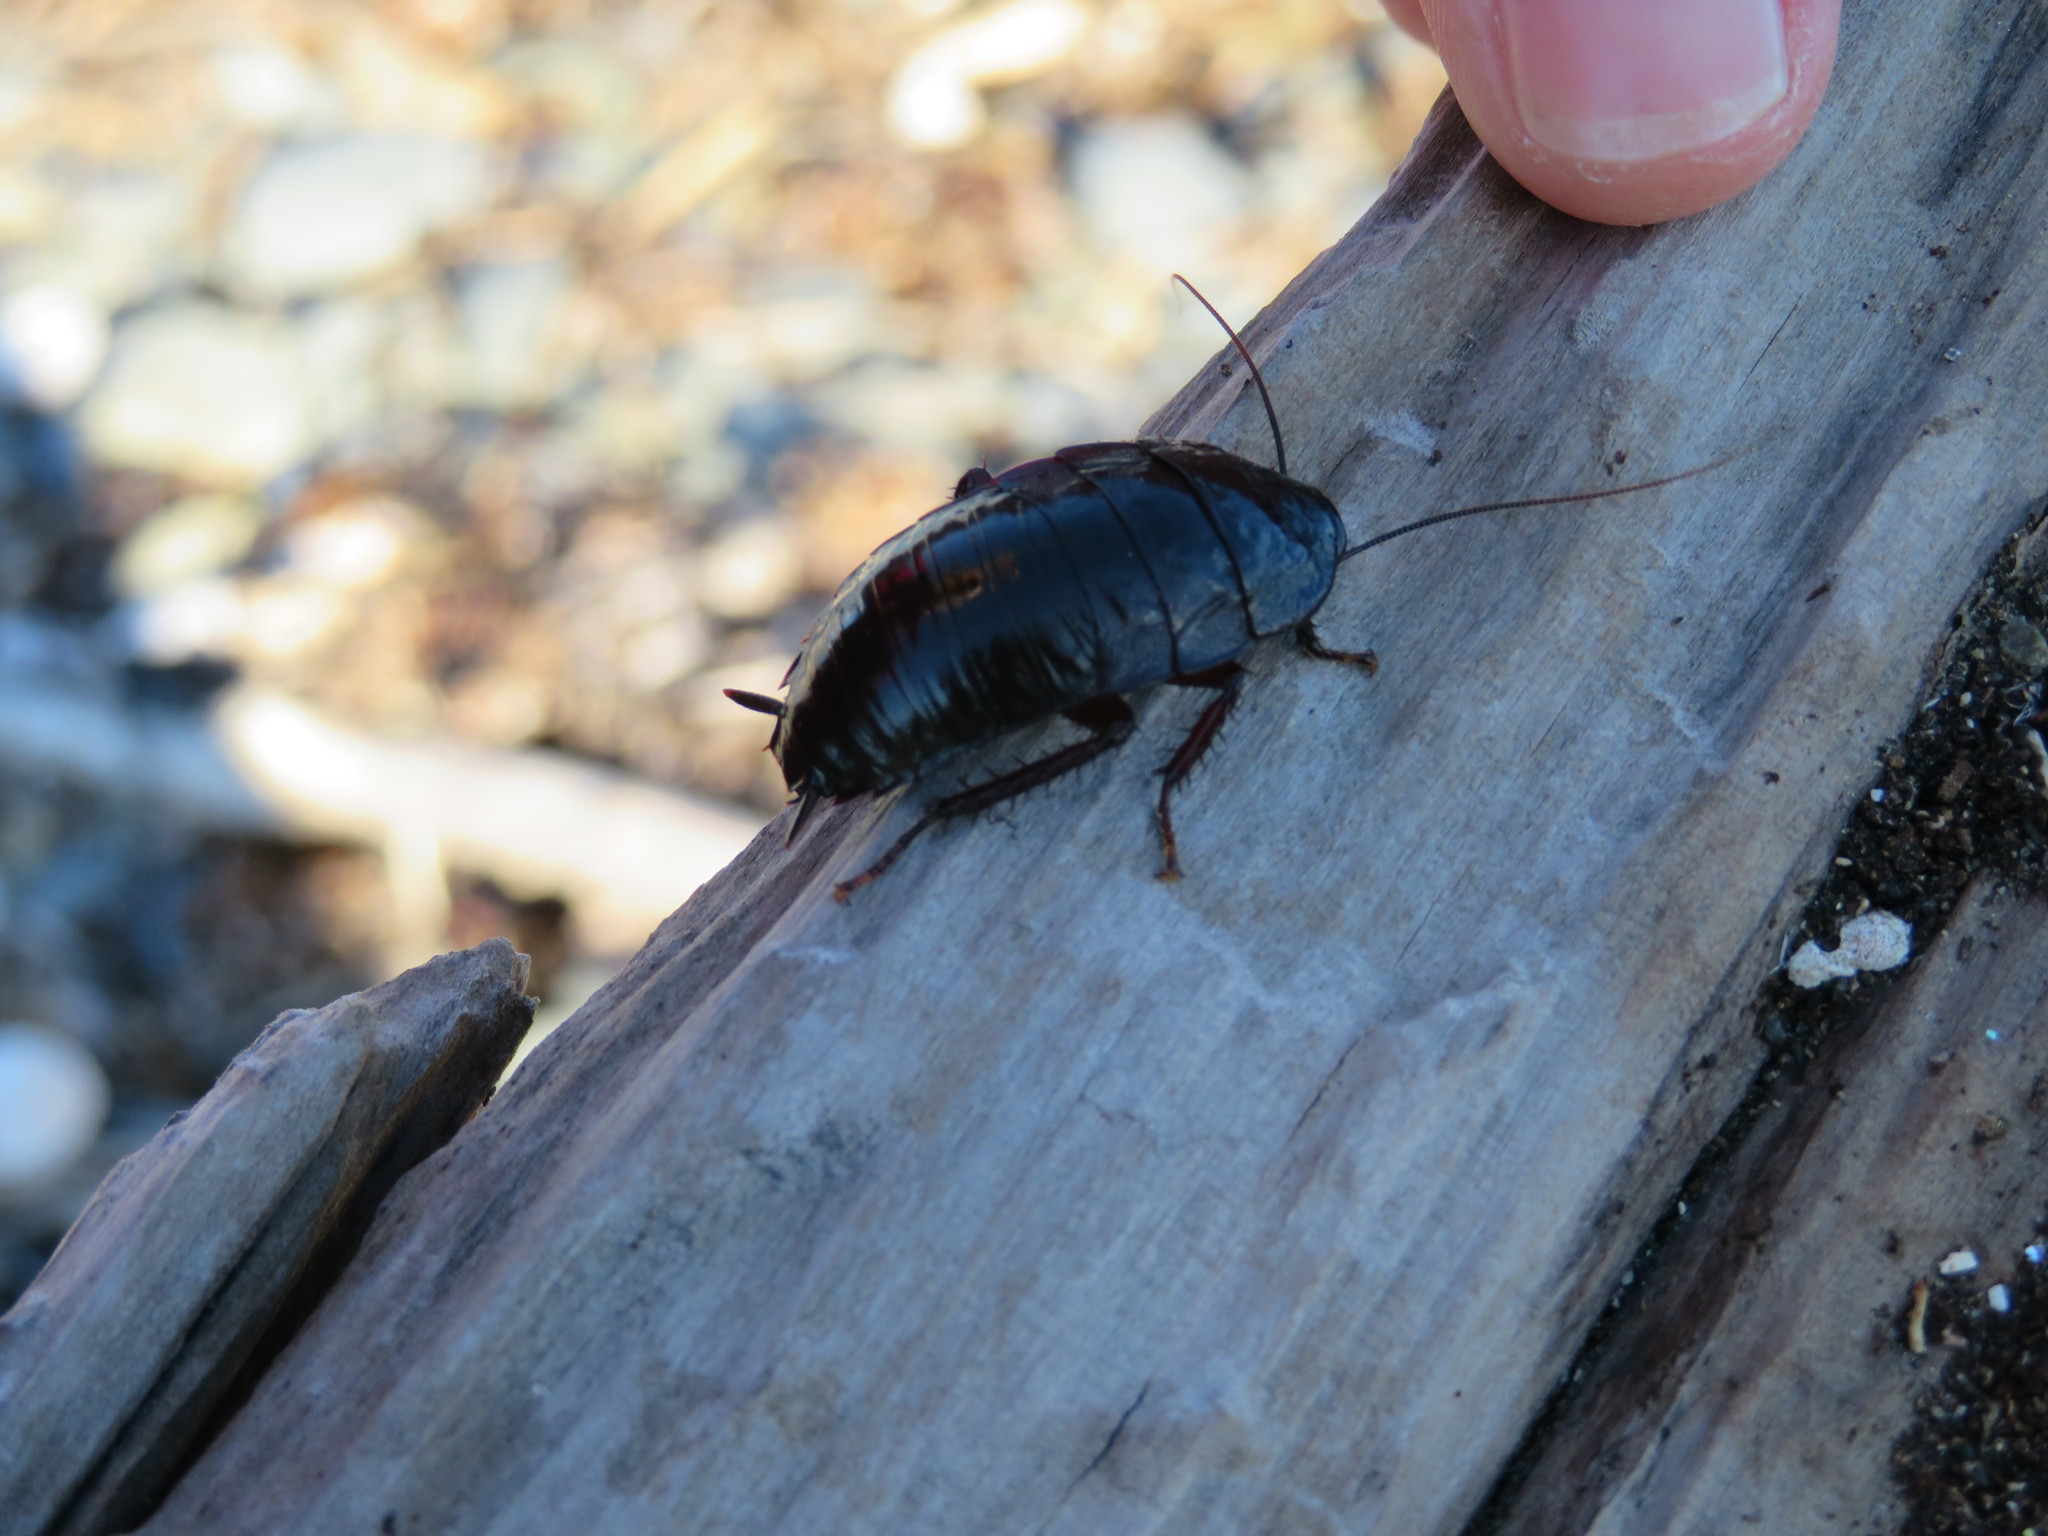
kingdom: Animalia
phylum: Arthropoda
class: Insecta
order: Blattodea
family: Blattidae
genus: Maoriblatta
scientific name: Maoriblatta novaeseelandiae
